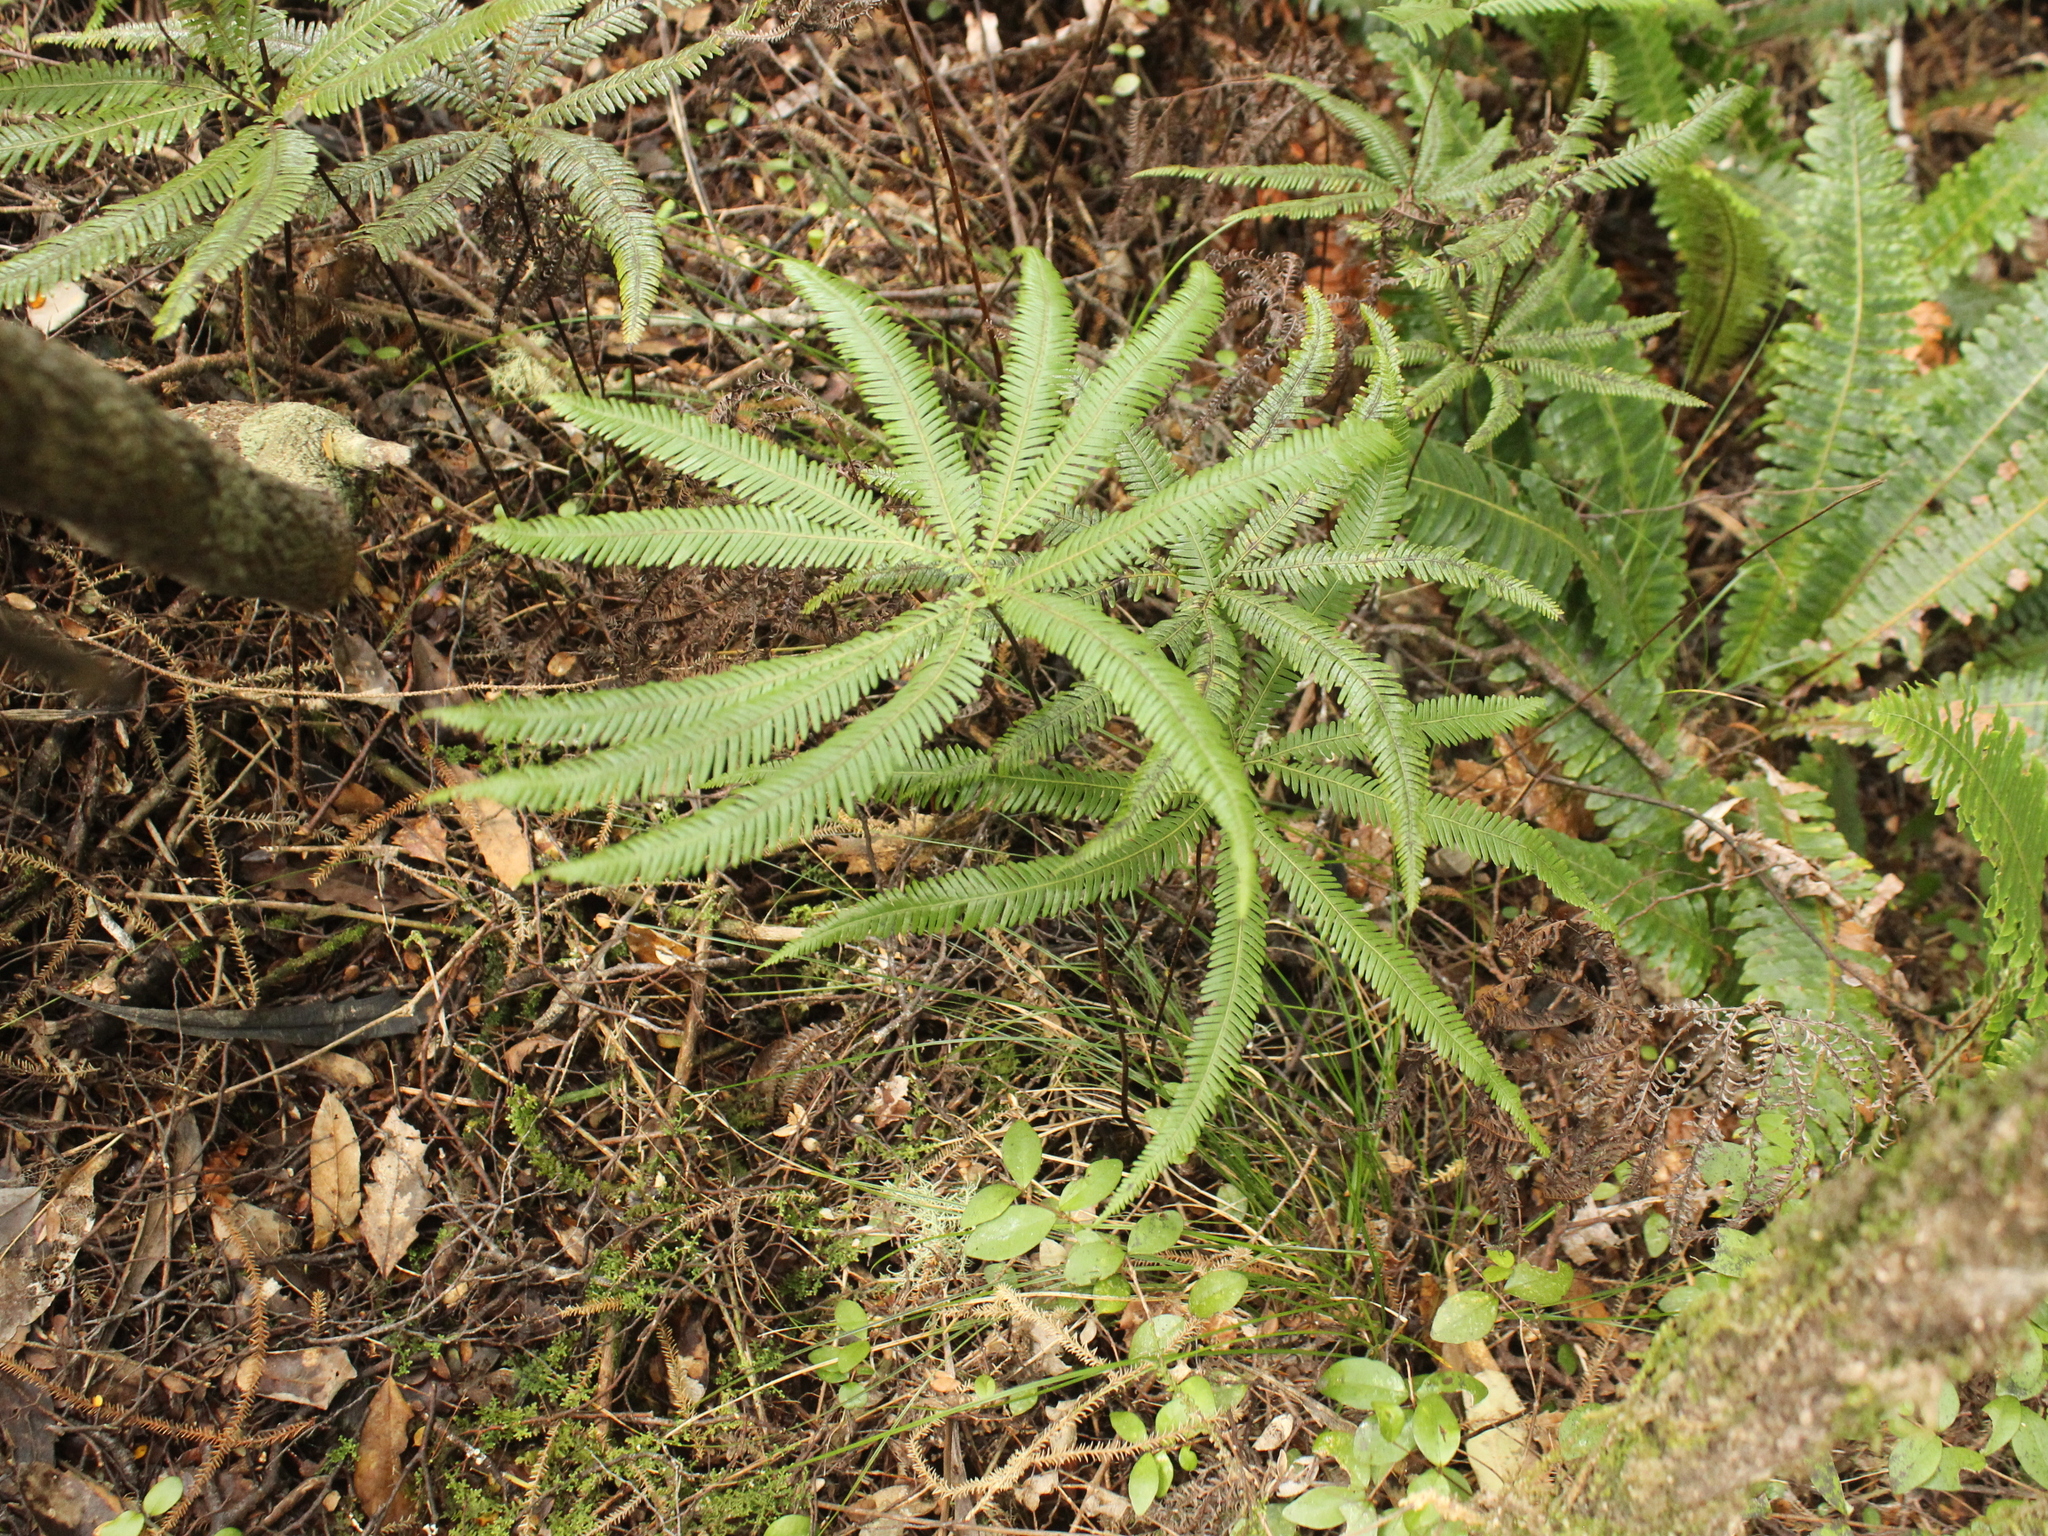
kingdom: Plantae
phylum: Tracheophyta
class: Polypodiopsida
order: Gleicheniales
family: Gleicheniaceae
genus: Sticherus
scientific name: Sticherus cunninghamii
